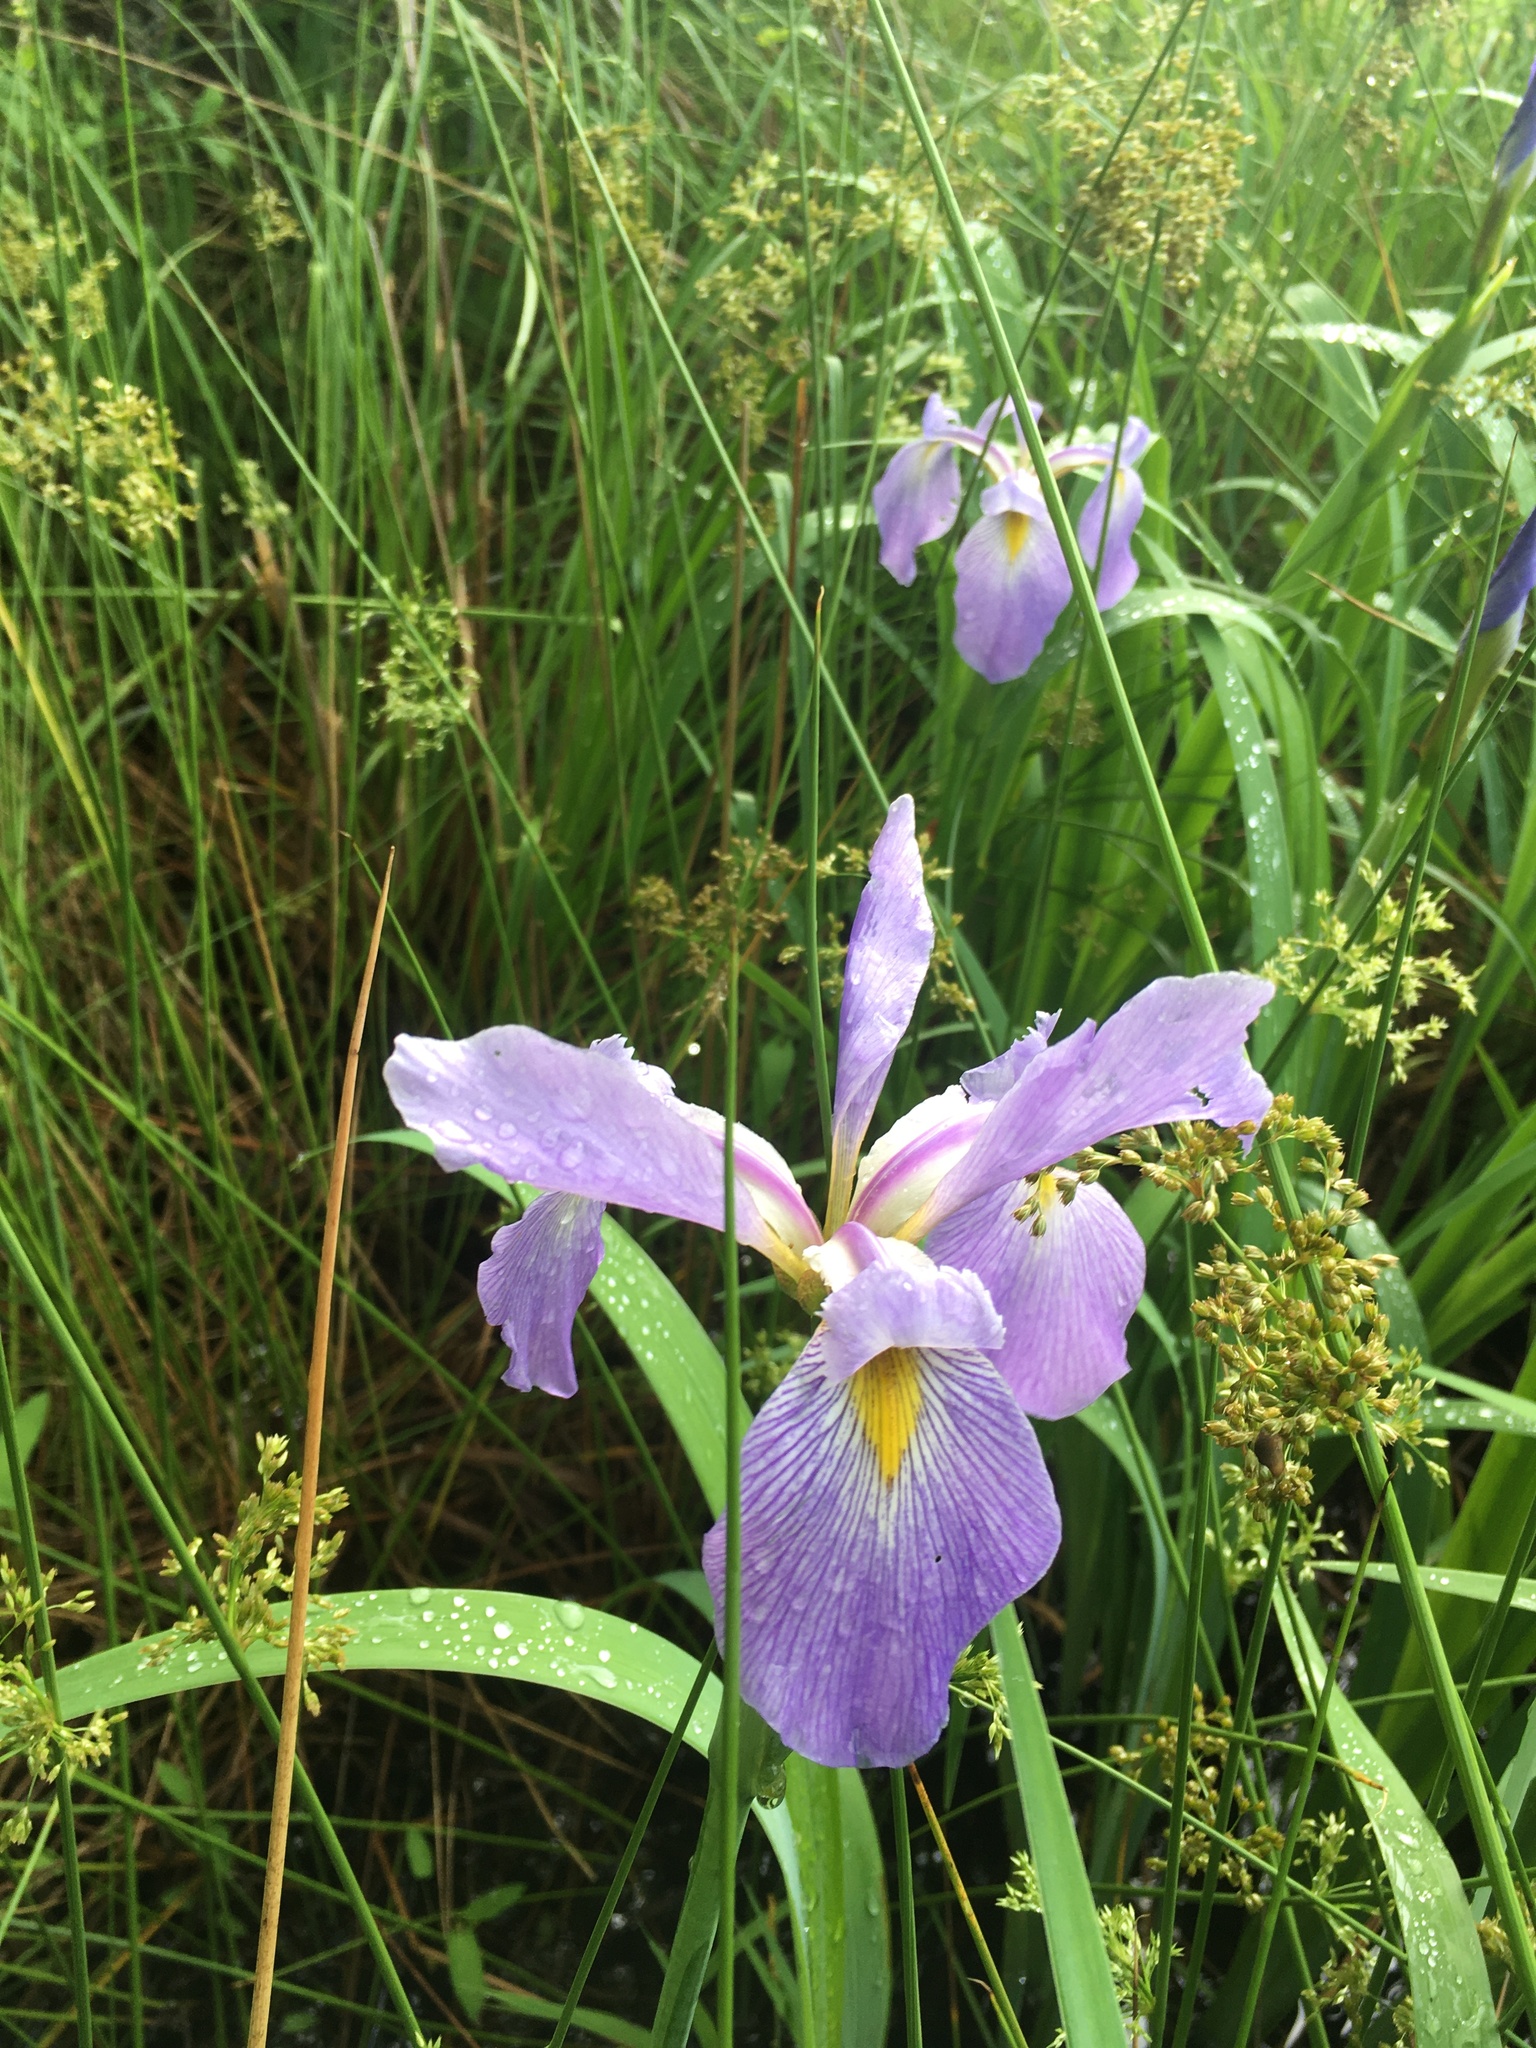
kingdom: Plantae
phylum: Tracheophyta
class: Liliopsida
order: Asparagales
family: Iridaceae
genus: Iris
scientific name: Iris virginica
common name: Southern blue flag
